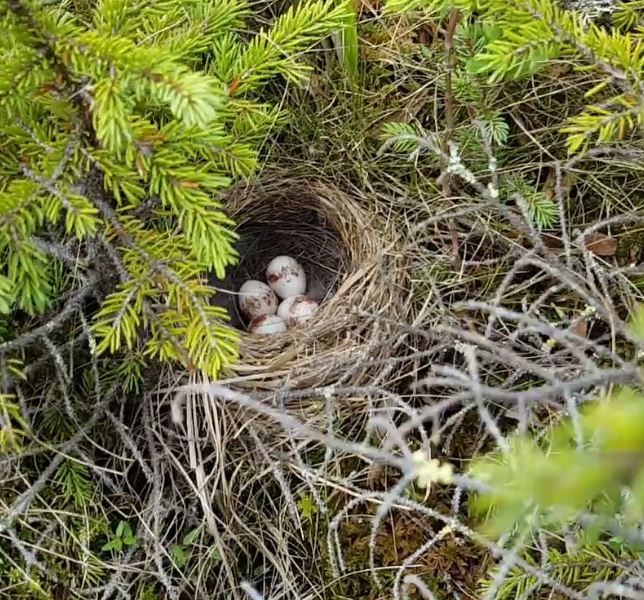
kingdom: Animalia
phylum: Chordata
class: Aves
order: Passeriformes
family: Parulidae
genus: Setophaga
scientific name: Setophaga palmarum
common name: Palm warbler
